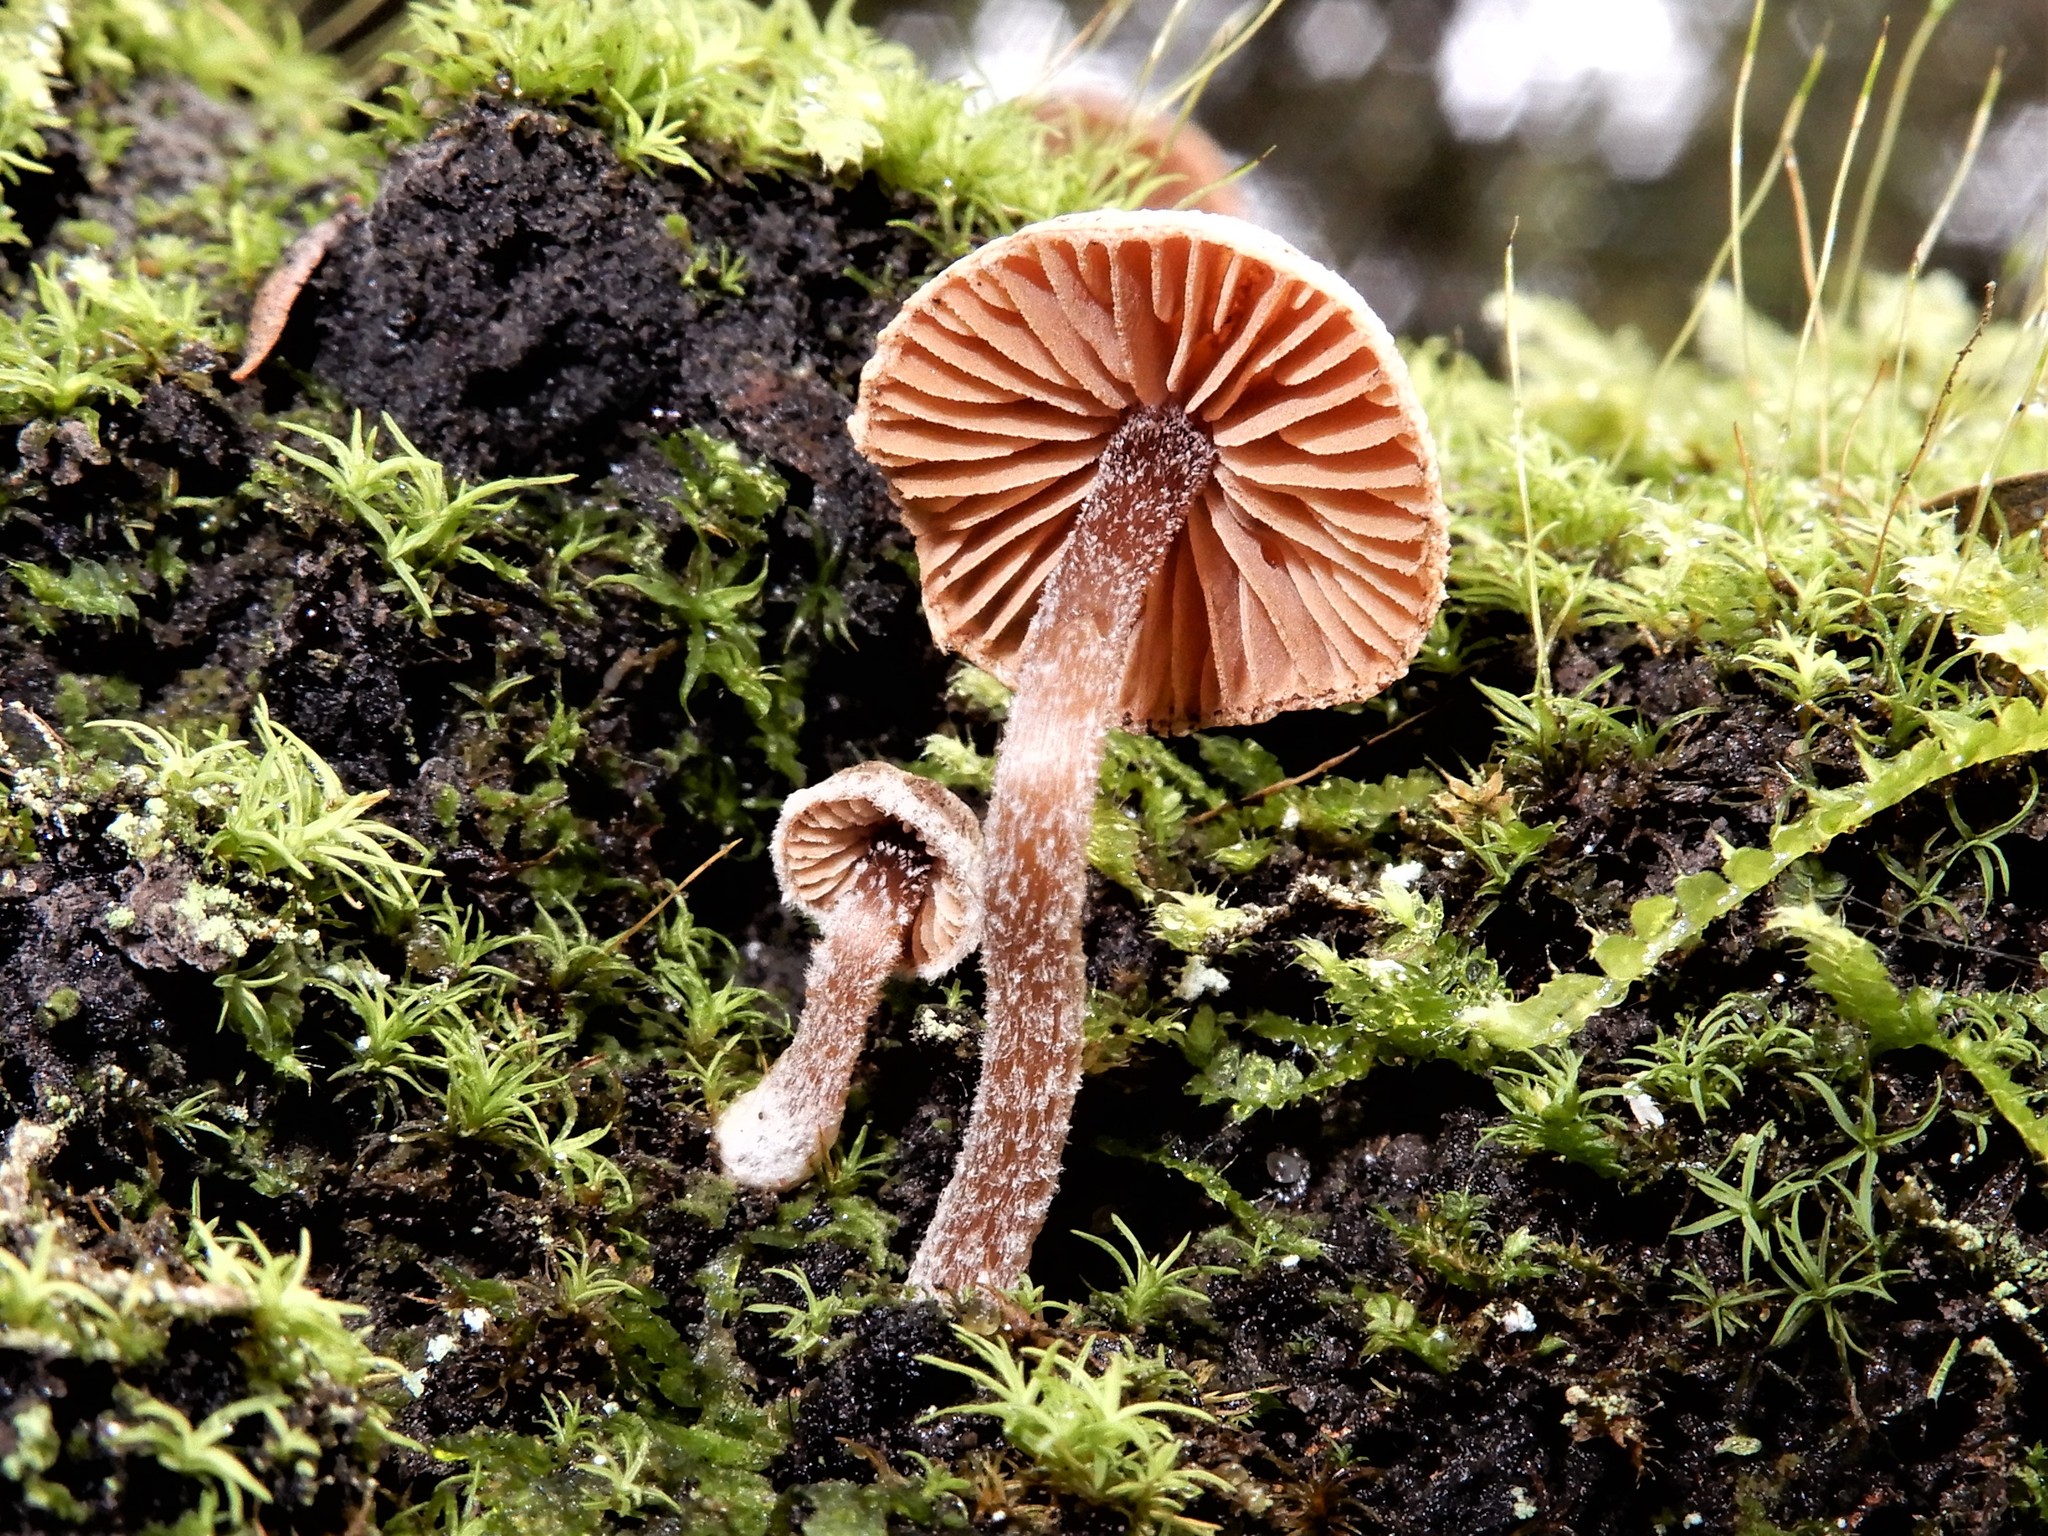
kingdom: Fungi
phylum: Basidiomycota
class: Agaricomycetes
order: Agaricales
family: Inocybaceae
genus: Inocybe
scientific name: Inocybe serrata
